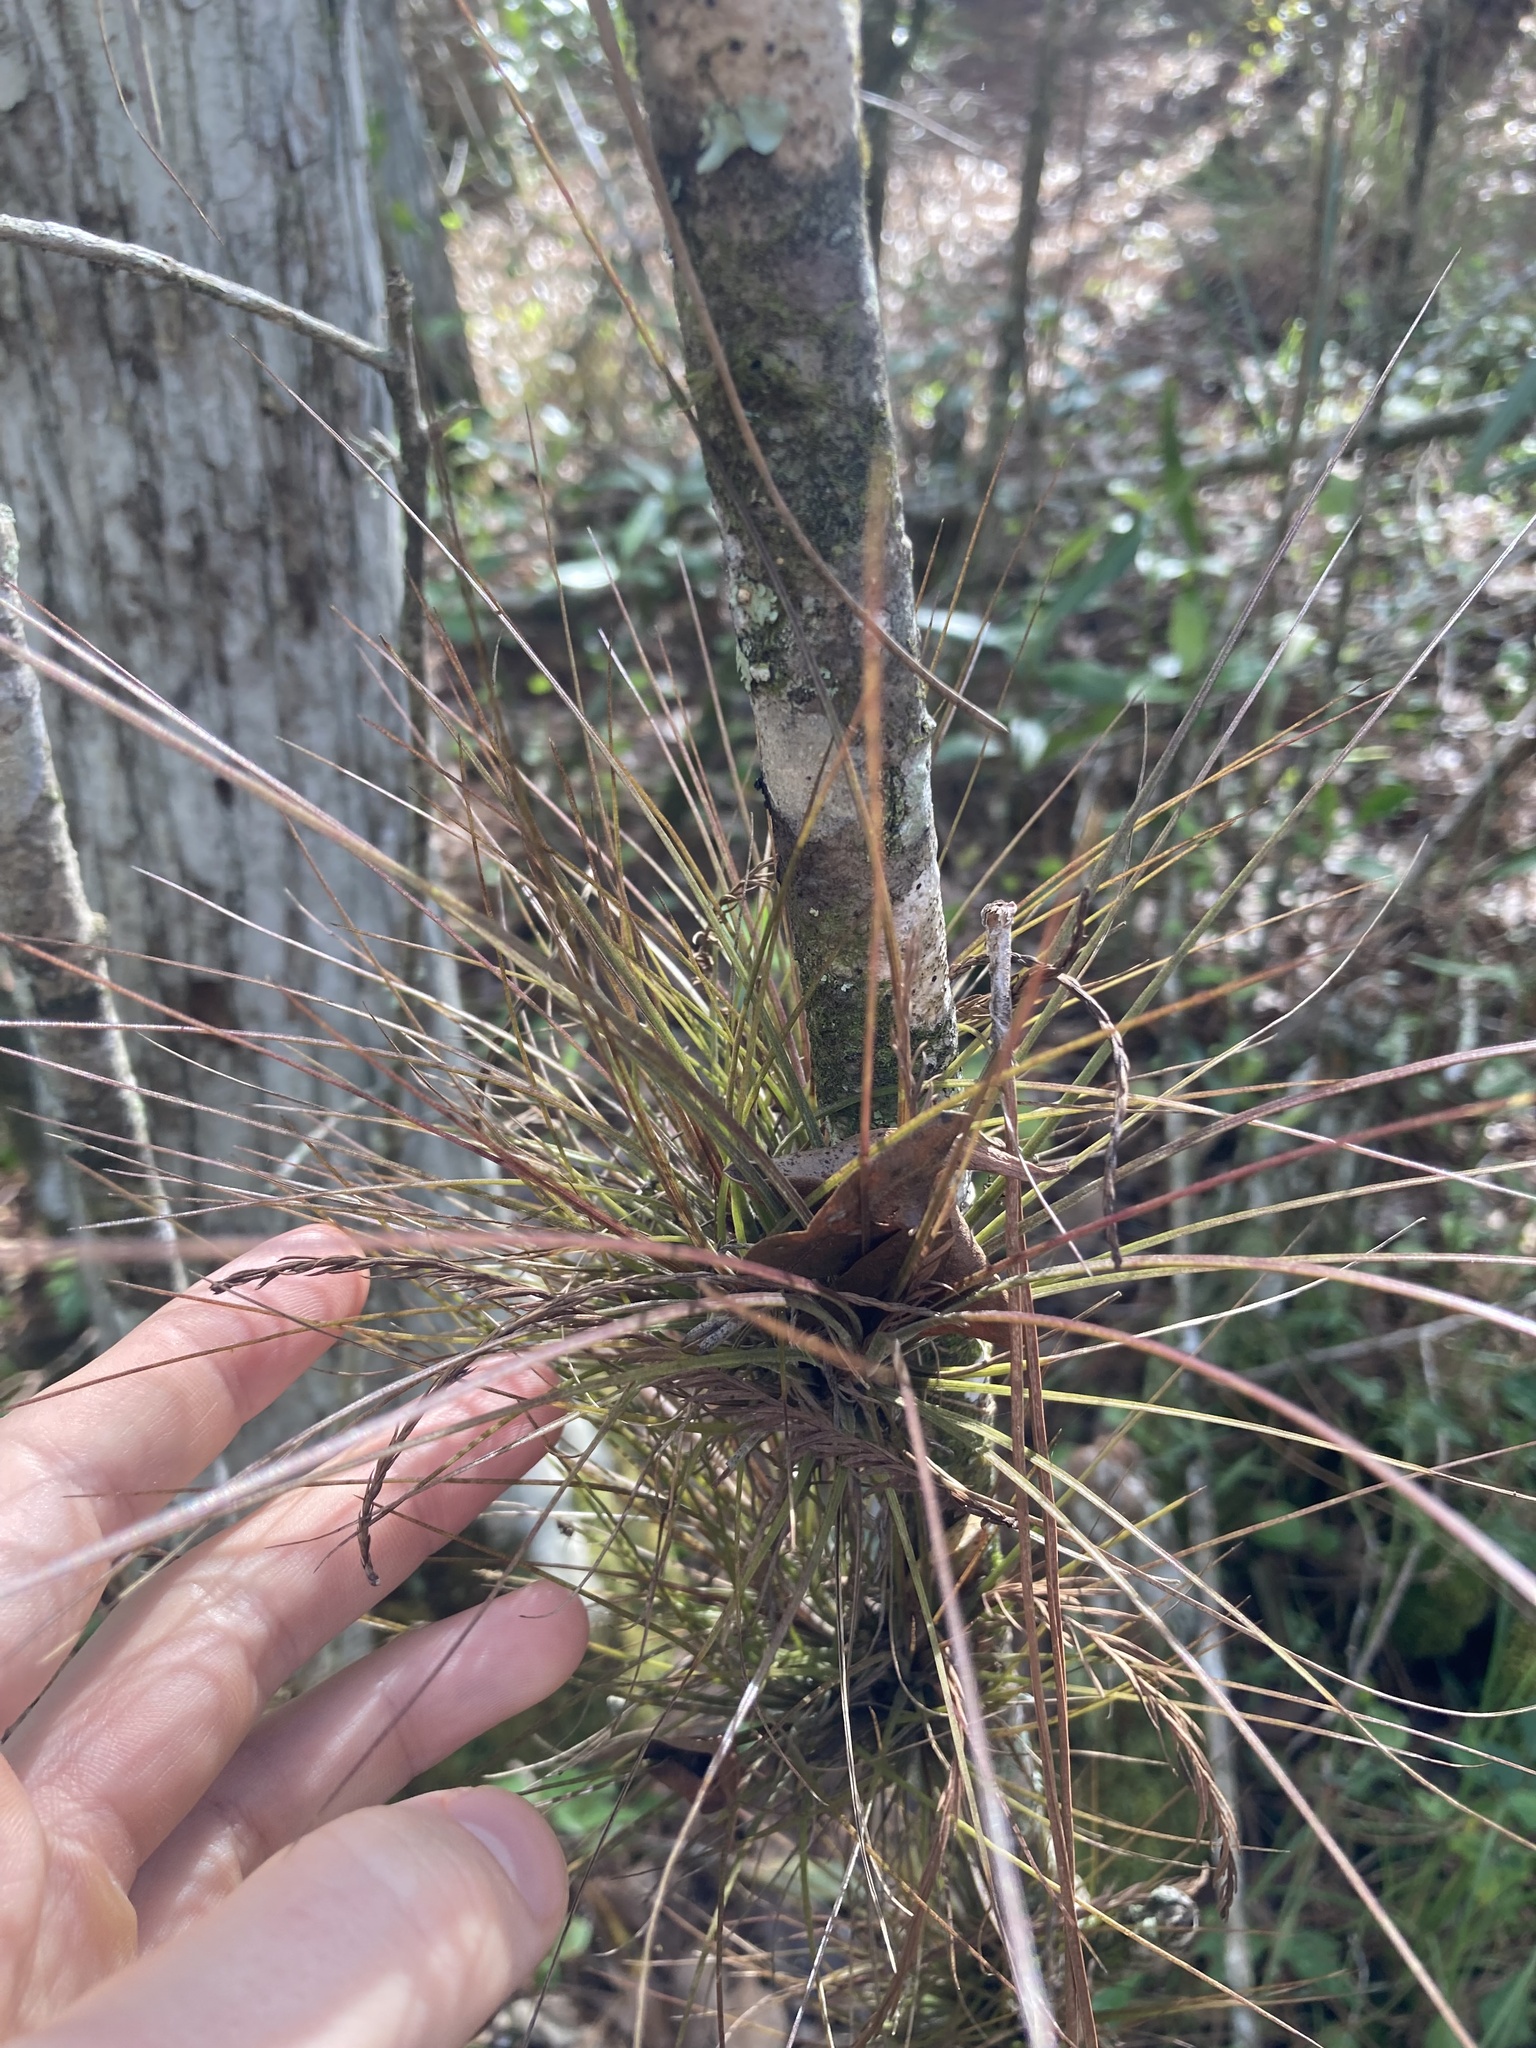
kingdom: Plantae
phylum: Tracheophyta
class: Liliopsida
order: Poales
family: Bromeliaceae
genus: Tillandsia
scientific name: Tillandsia setacea
